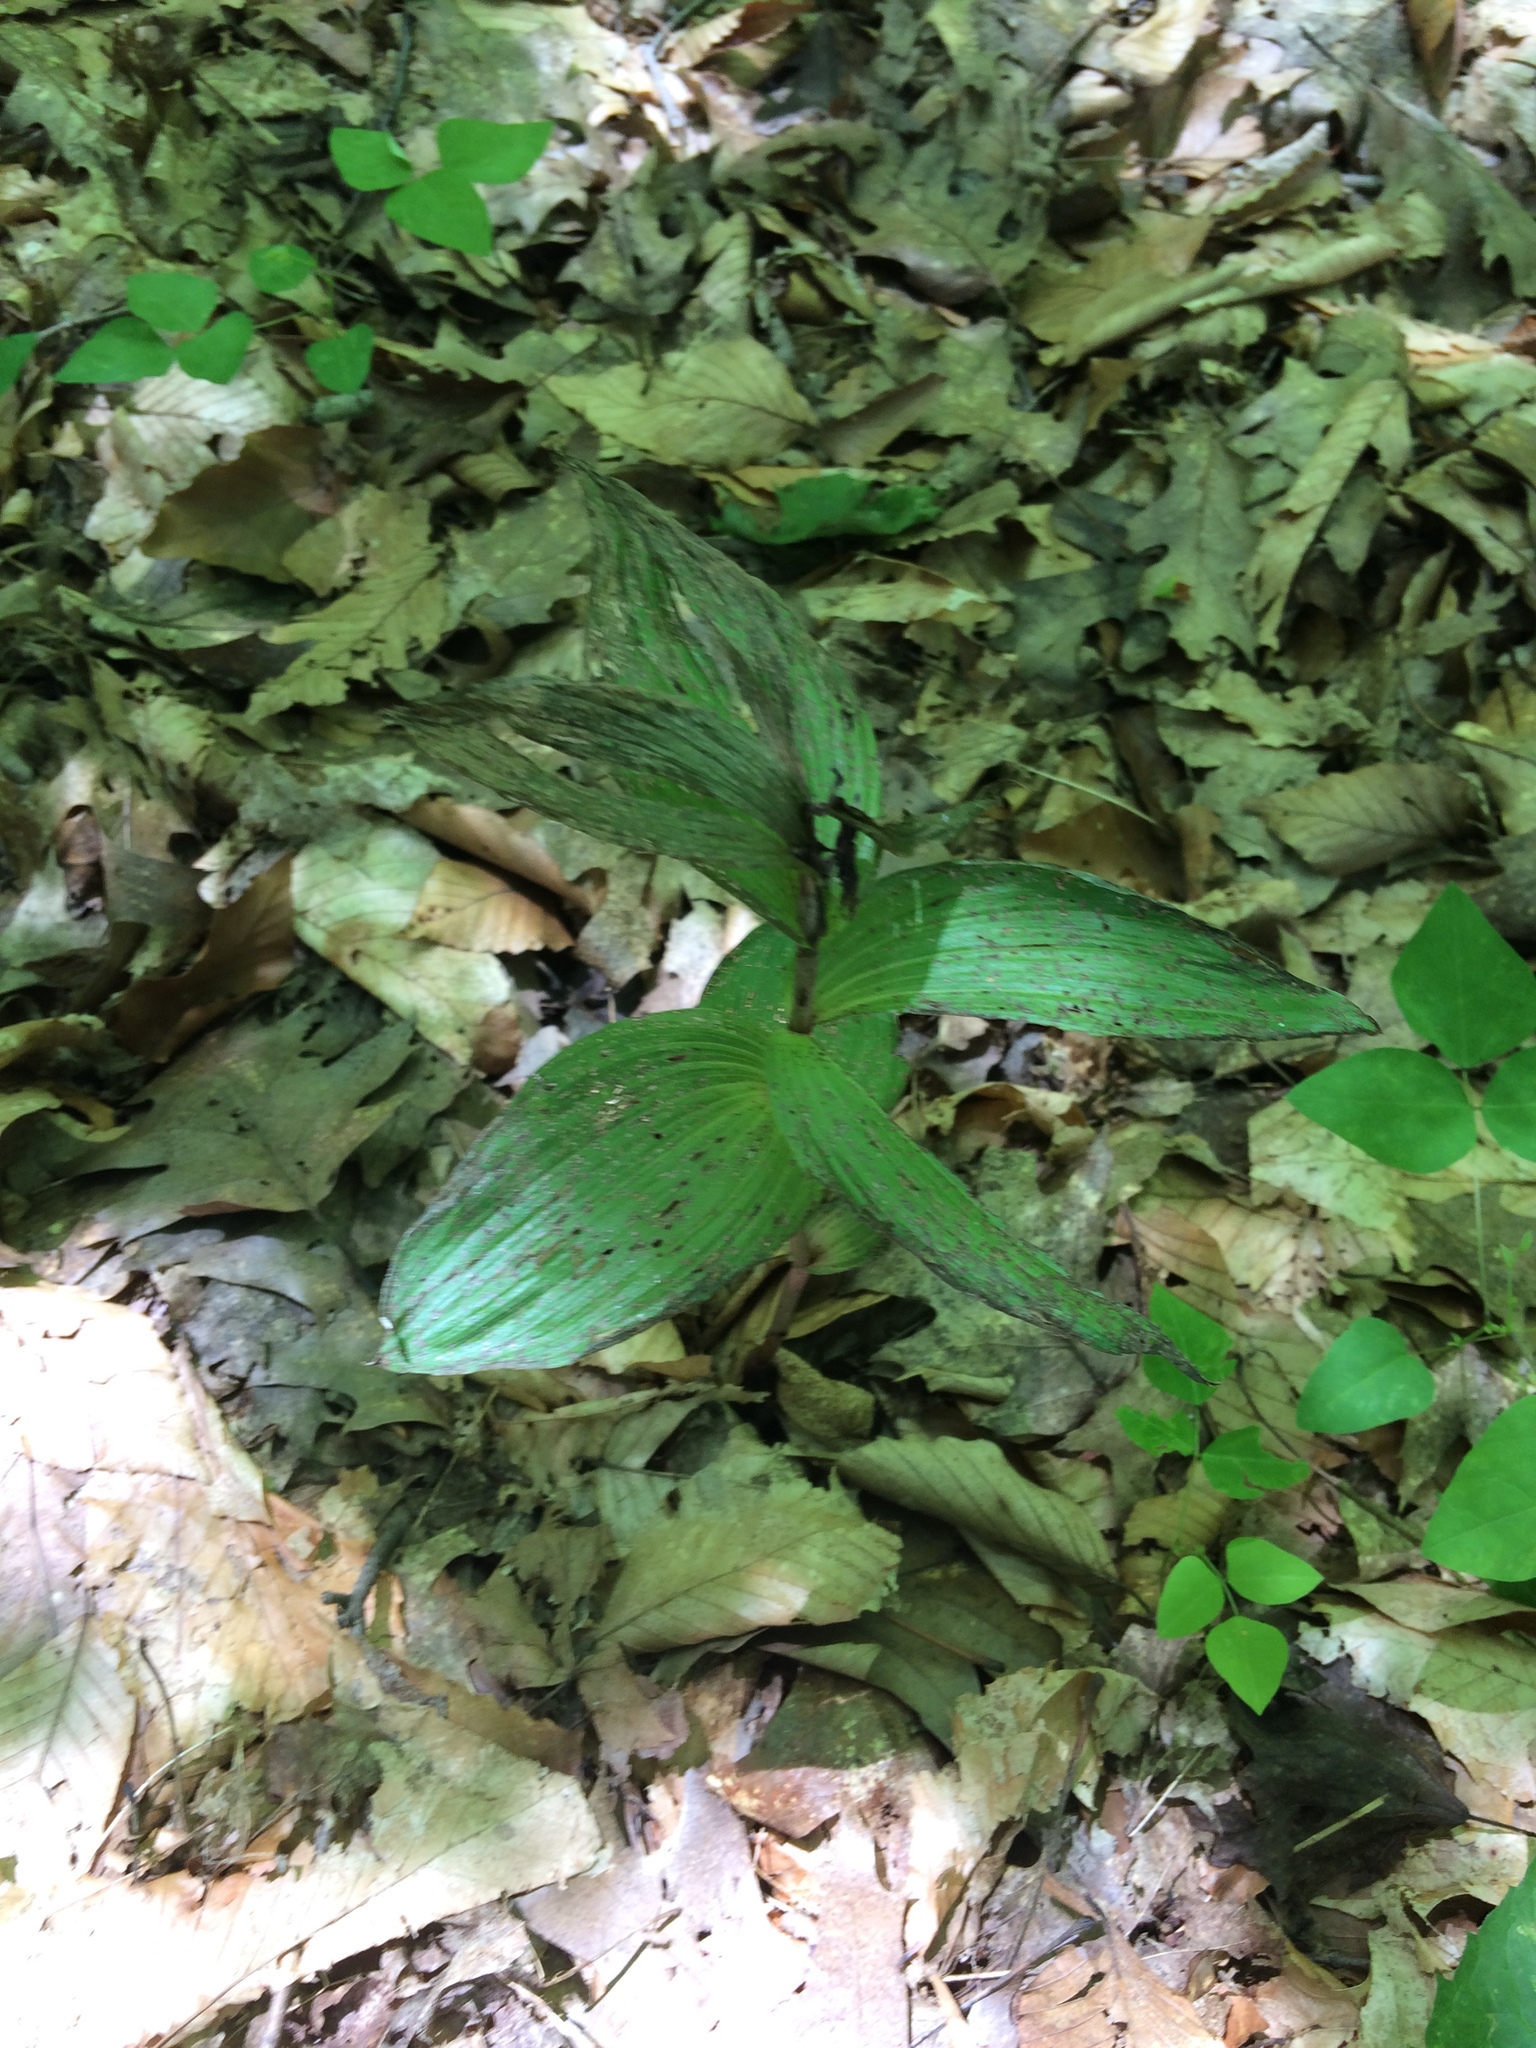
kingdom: Plantae
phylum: Tracheophyta
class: Liliopsida
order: Asparagales
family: Orchidaceae
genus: Epipactis
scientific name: Epipactis helleborine
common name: Broad-leaved helleborine
